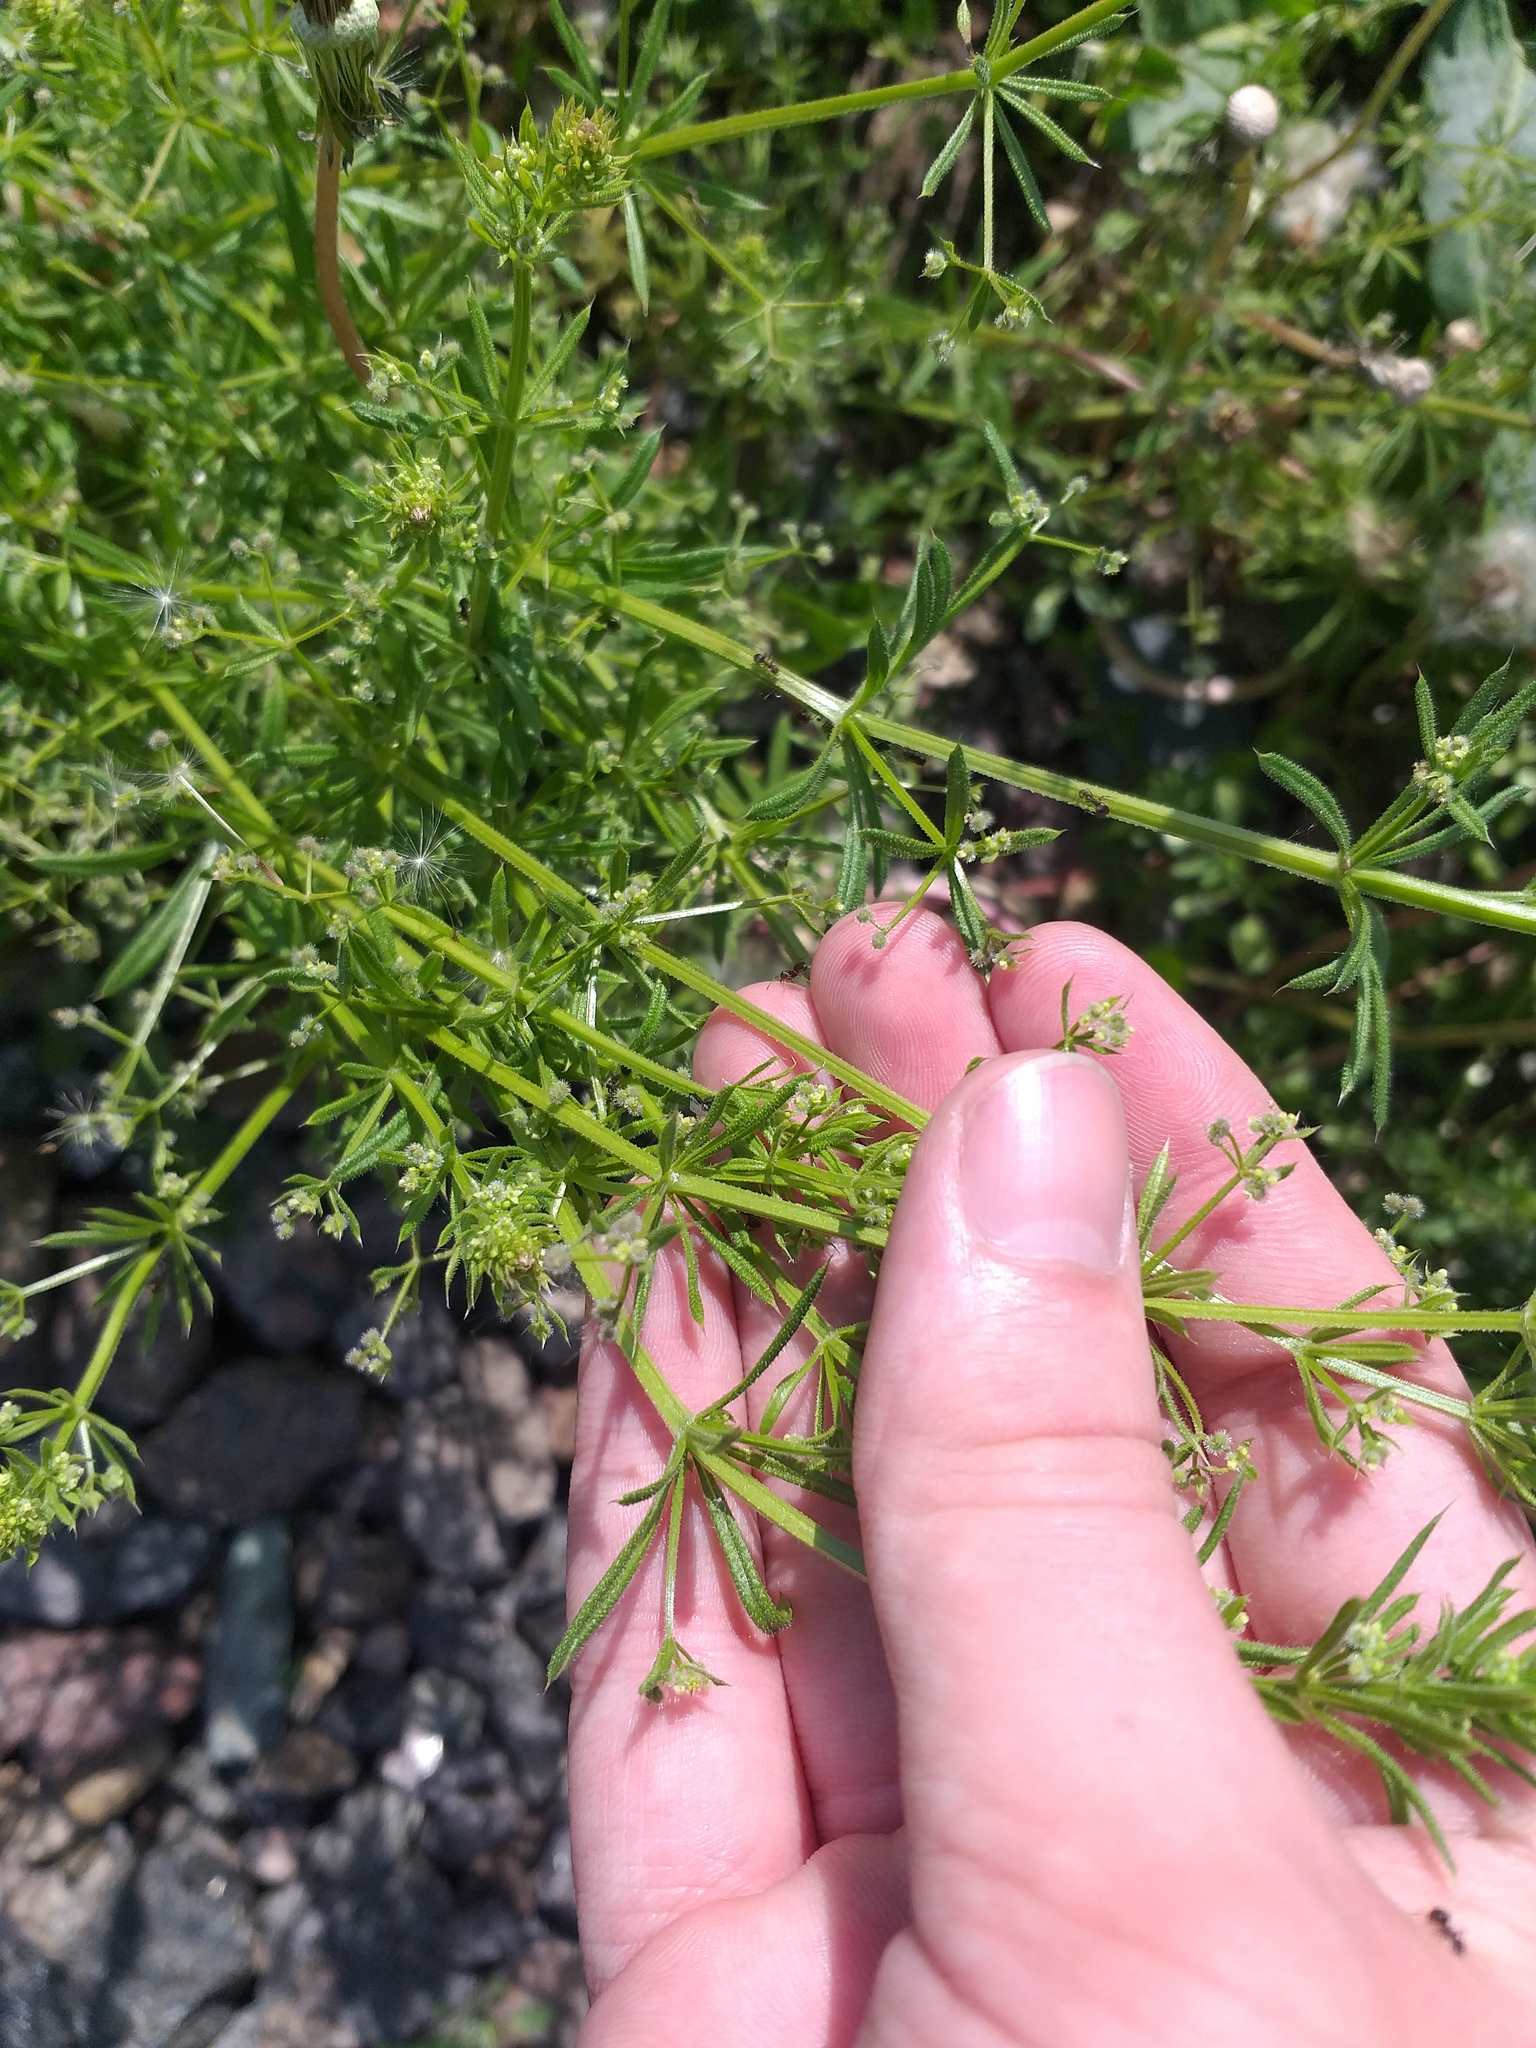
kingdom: Plantae
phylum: Tracheophyta
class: Magnoliopsida
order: Gentianales
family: Rubiaceae
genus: Galium
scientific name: Galium
